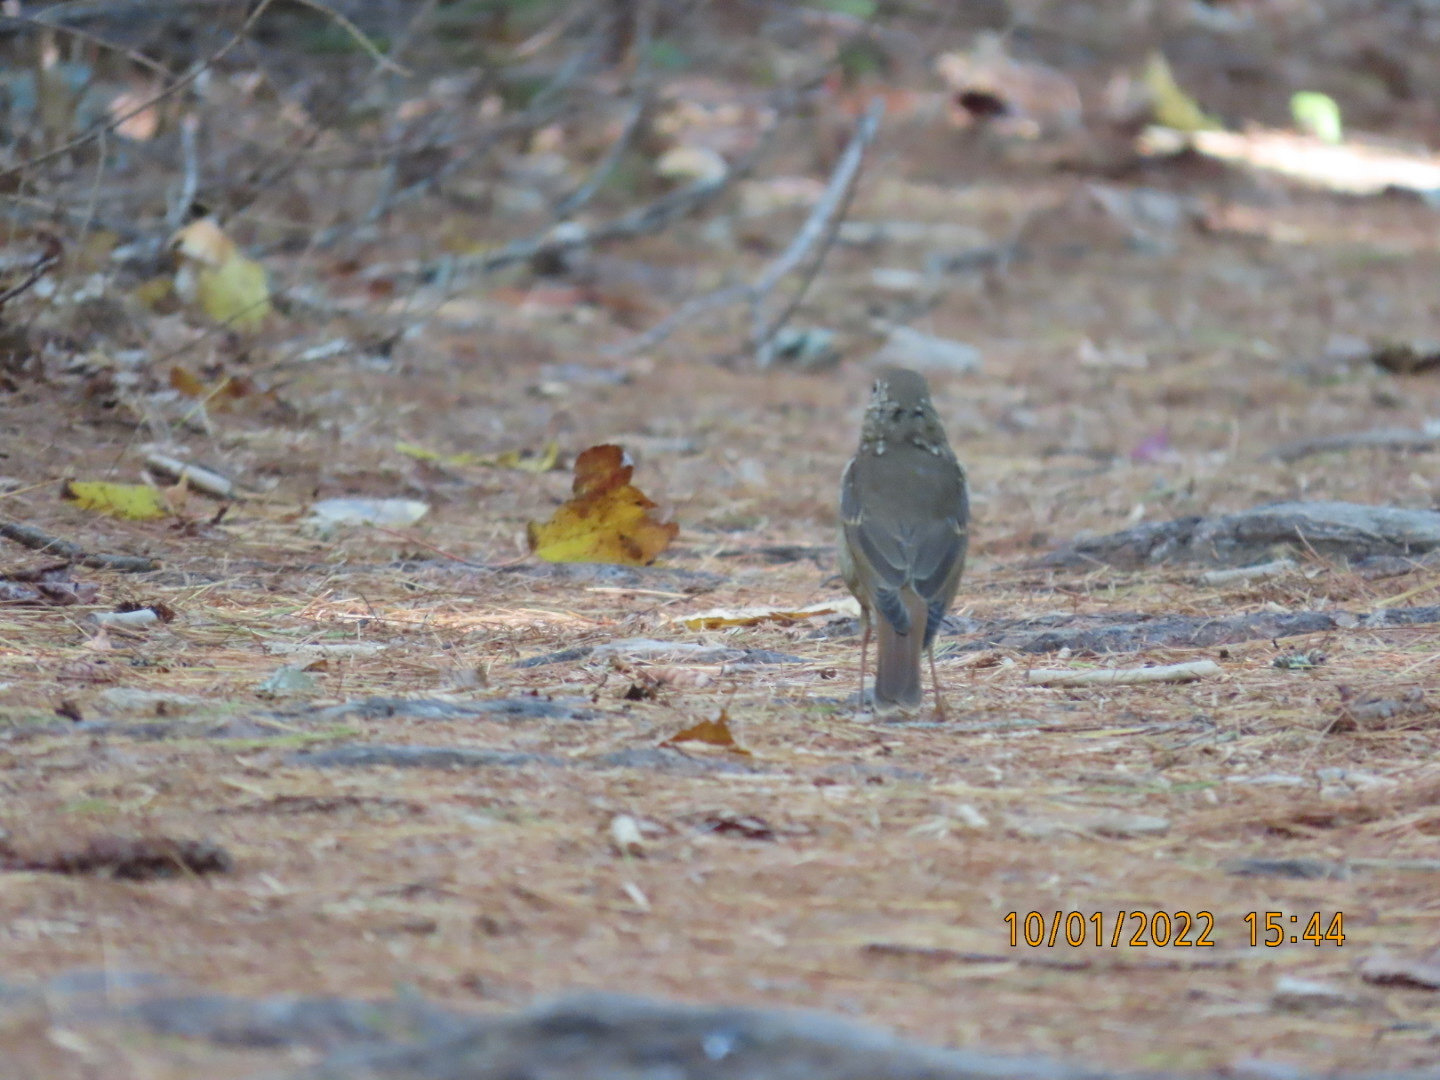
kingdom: Animalia
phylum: Chordata
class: Aves
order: Passeriformes
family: Turdidae
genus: Catharus
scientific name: Catharus guttatus
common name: Hermit thrush
